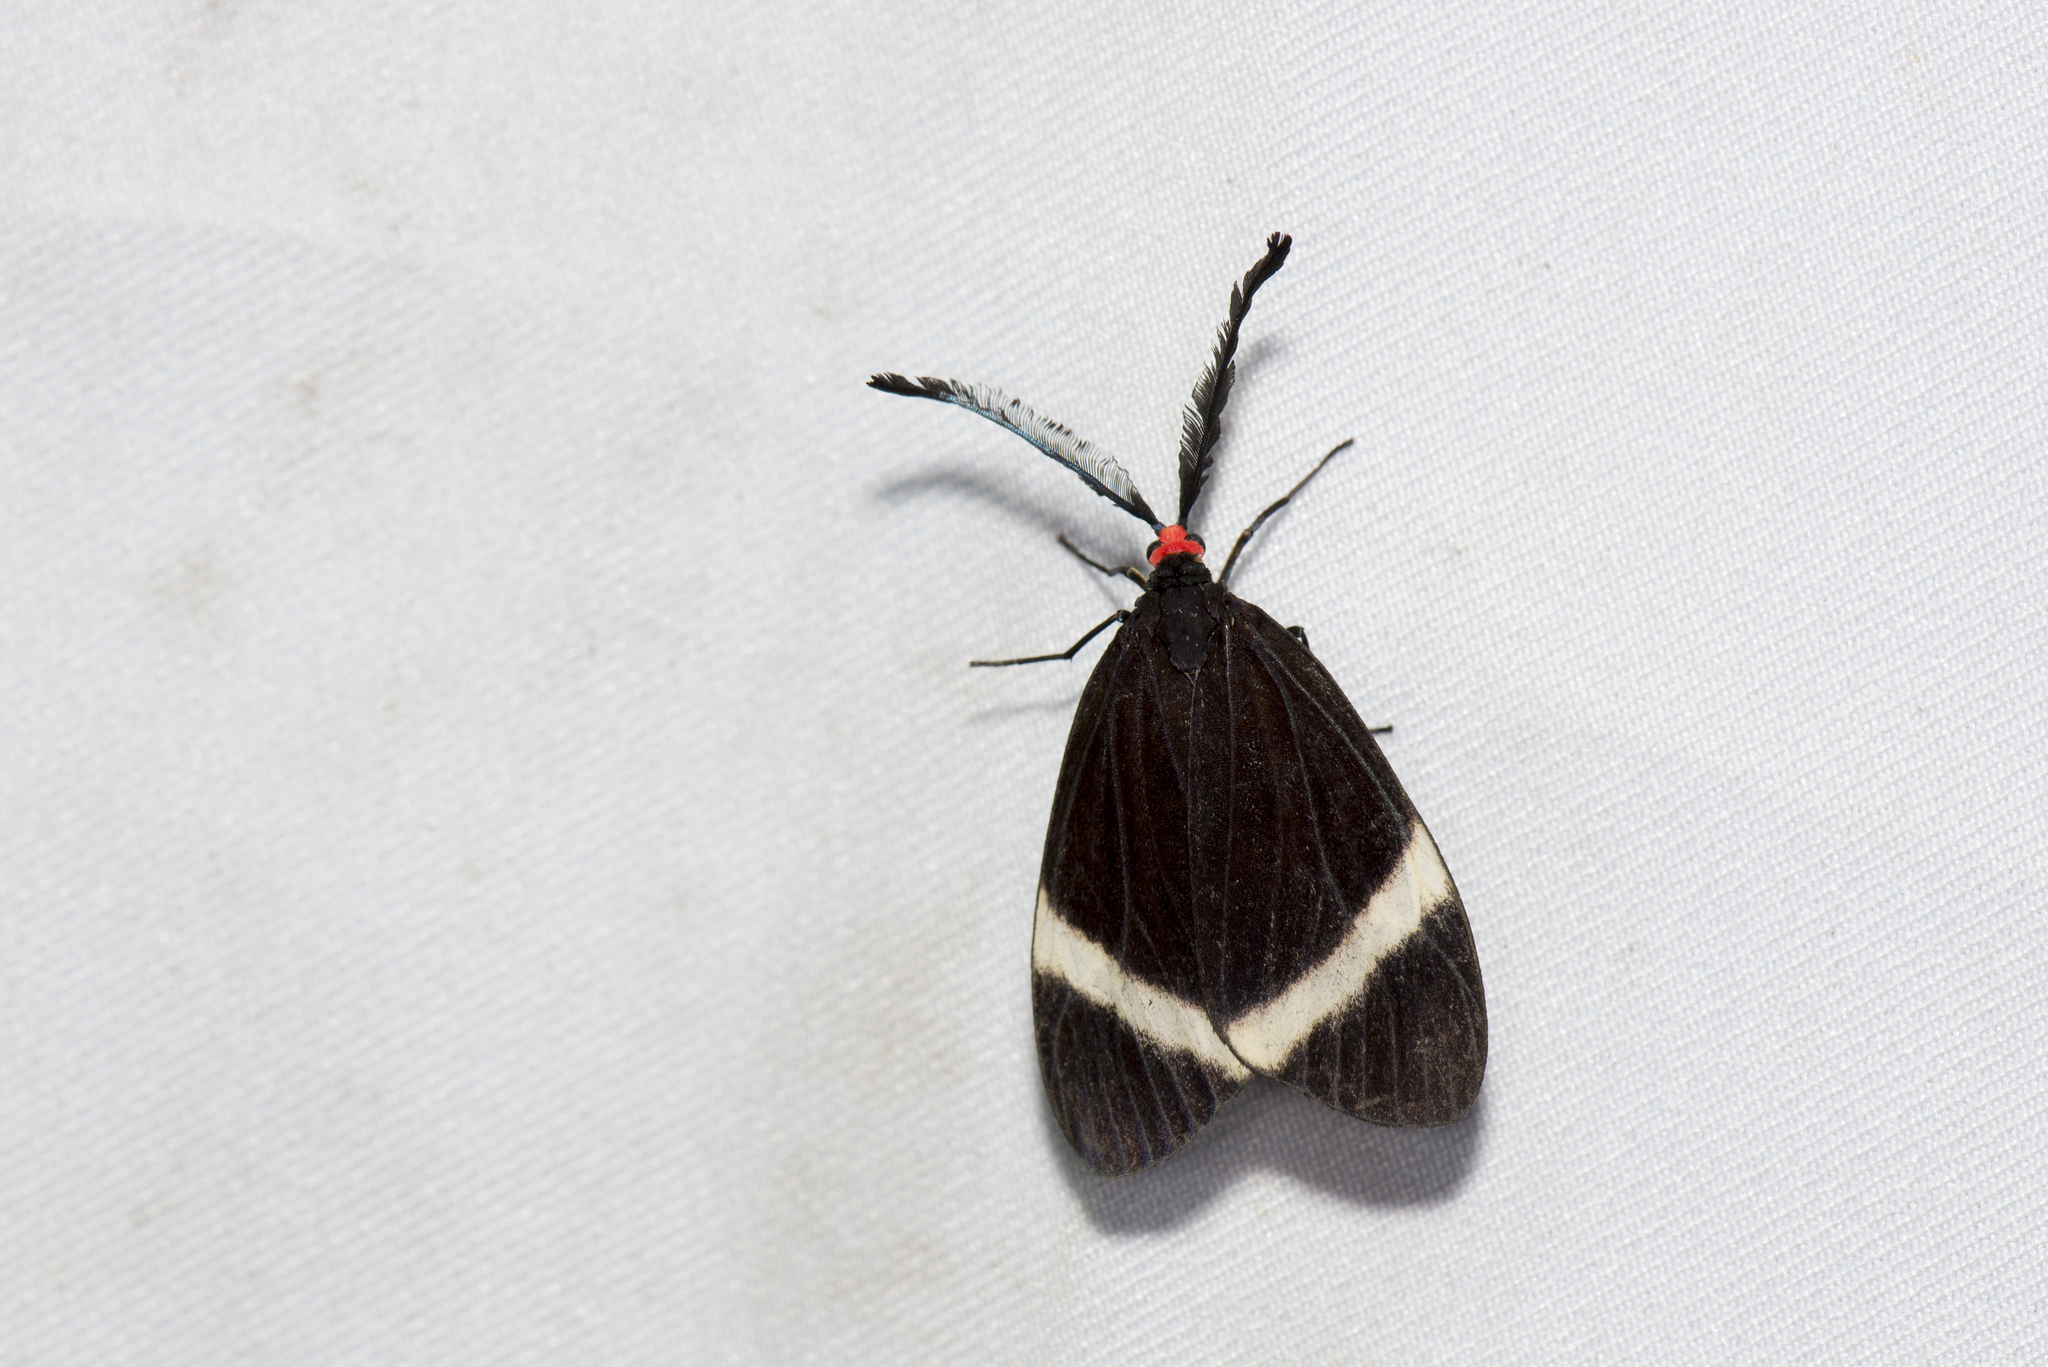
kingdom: Animalia
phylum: Arthropoda
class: Insecta
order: Lepidoptera
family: Zygaenidae
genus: Pidorus
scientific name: Pidorus glaucopis
